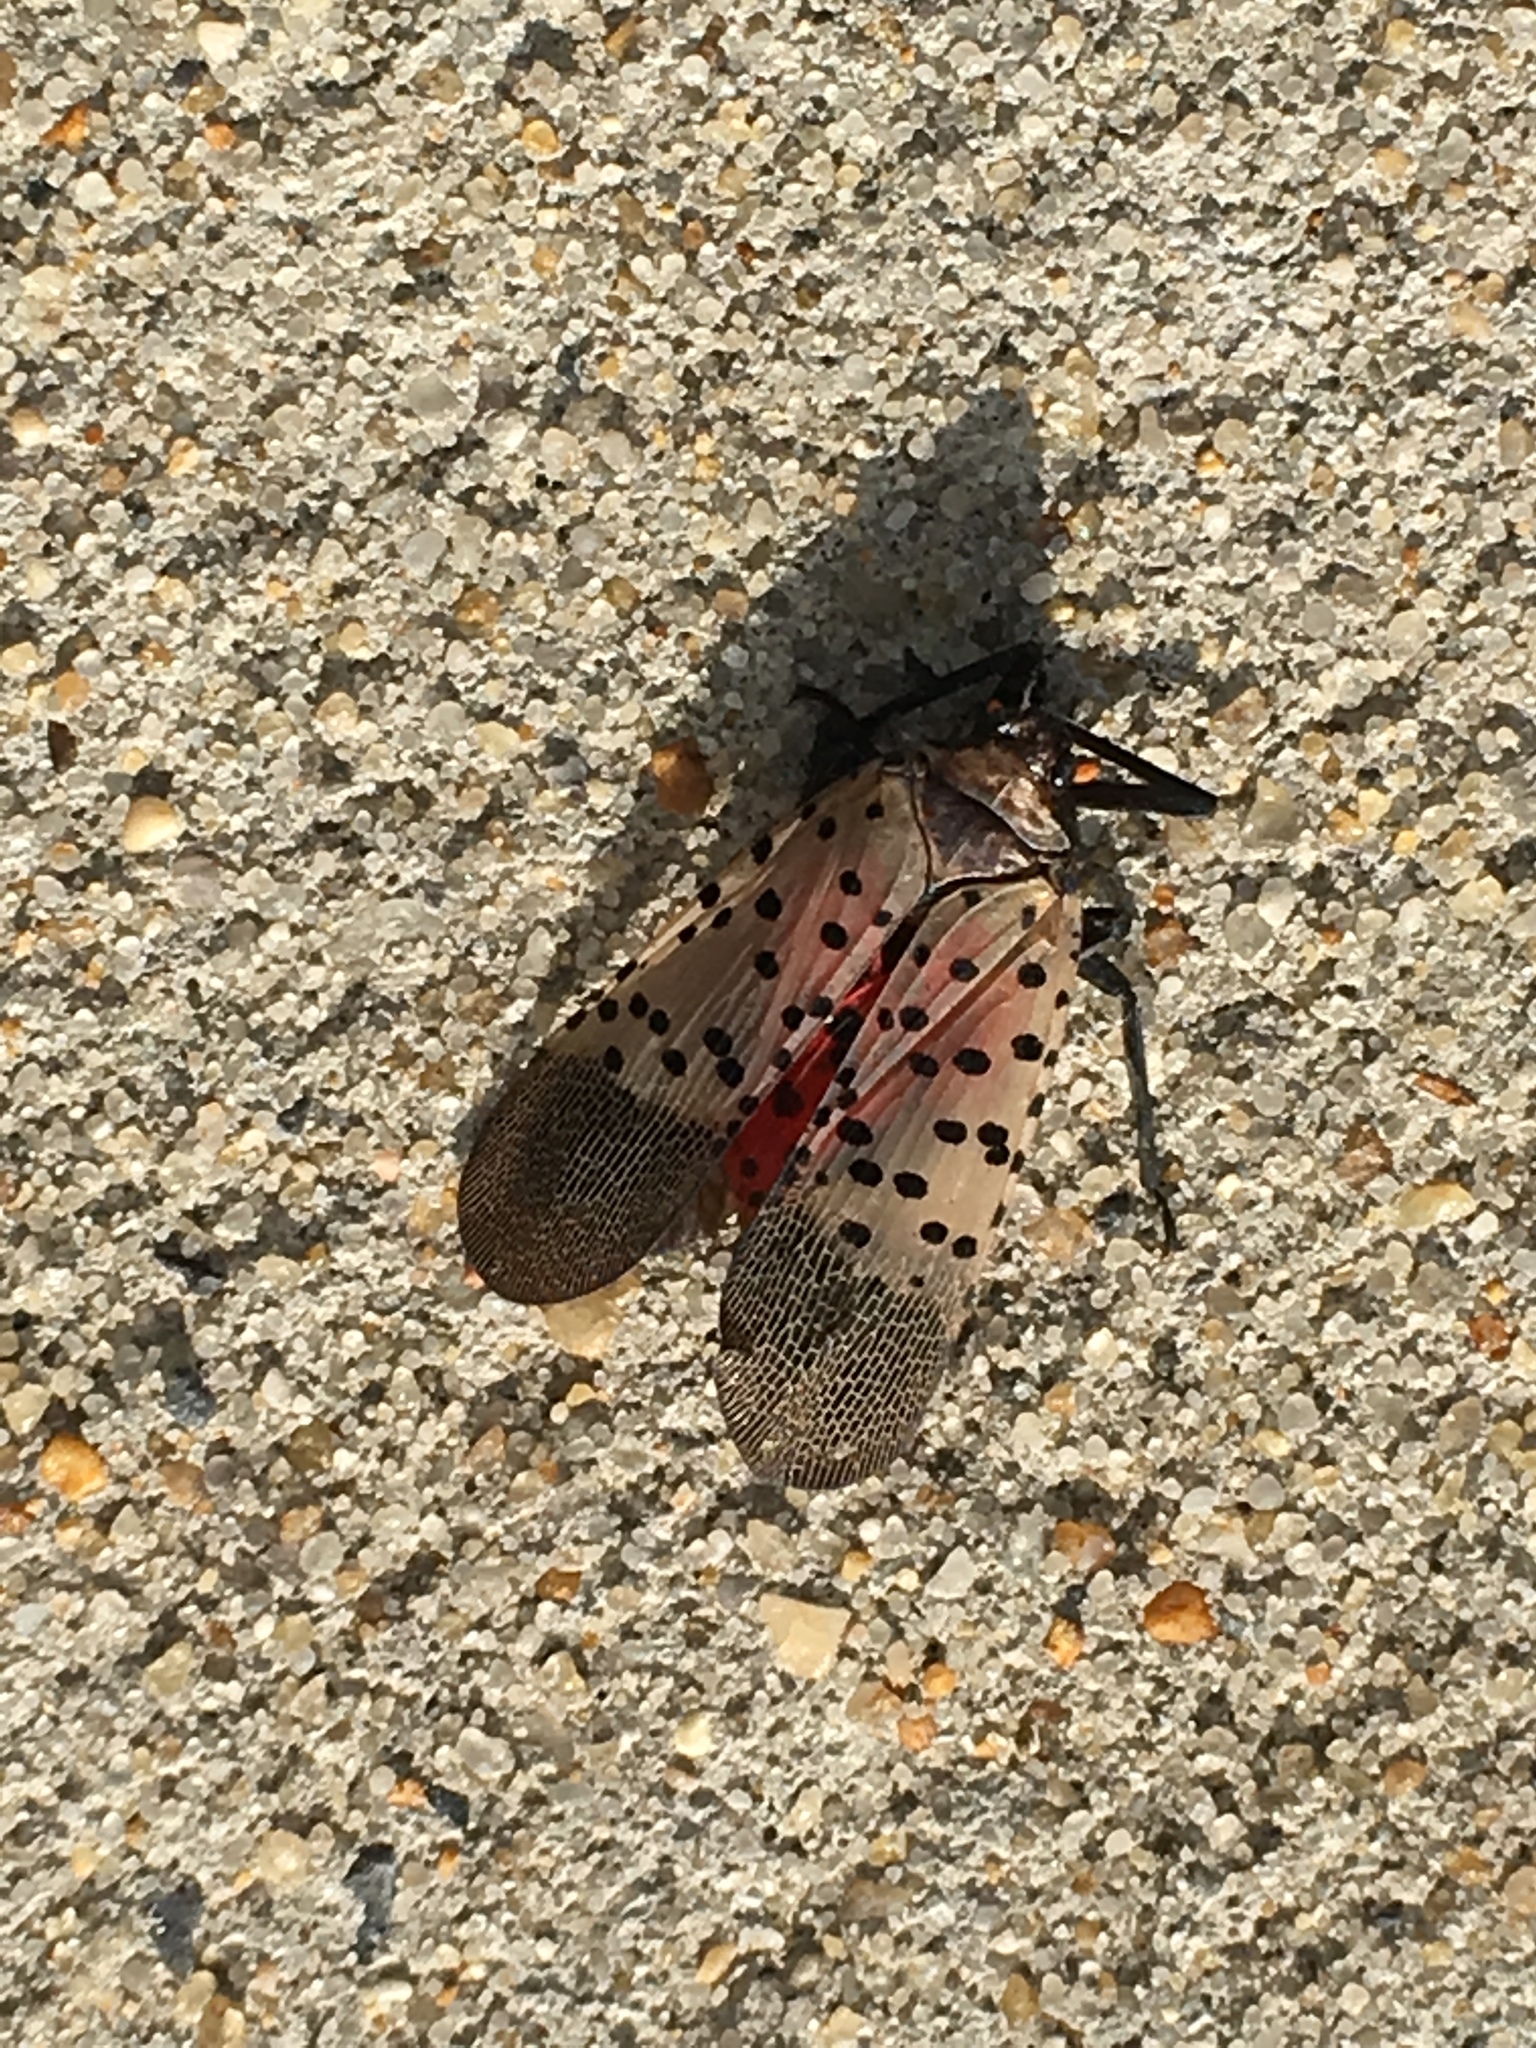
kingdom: Animalia
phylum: Arthropoda
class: Insecta
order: Hemiptera
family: Fulgoridae
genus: Lycorma
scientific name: Lycorma delicatula
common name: Spotted lanternfly
